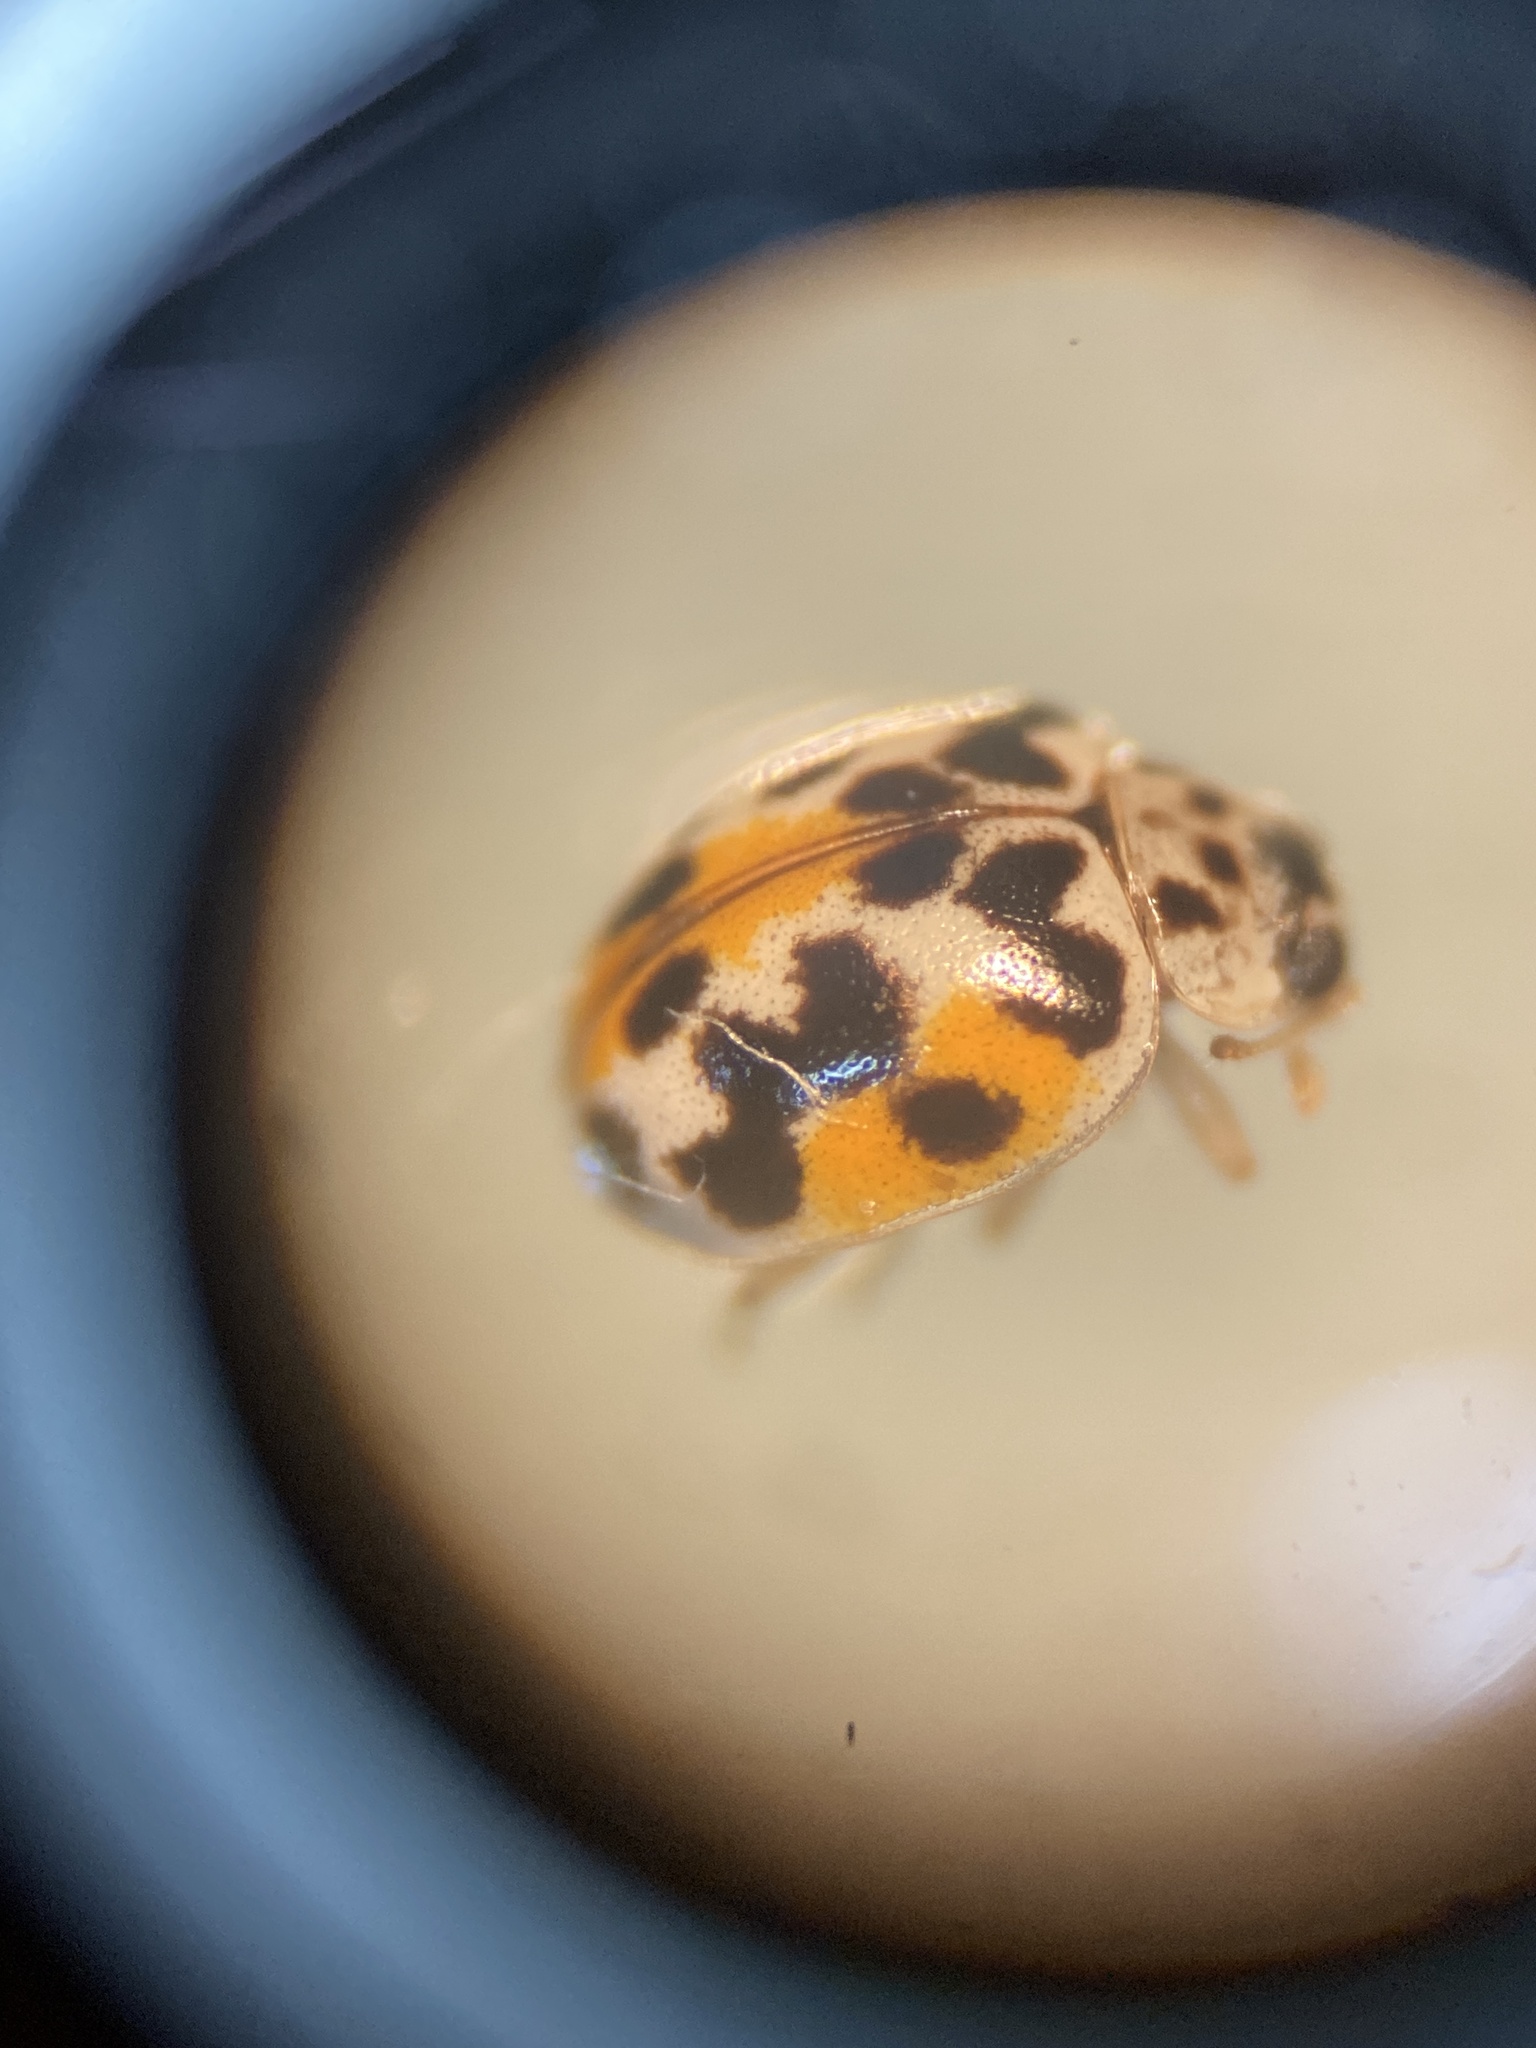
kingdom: Animalia
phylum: Arthropoda
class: Insecta
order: Coleoptera
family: Coccinellidae
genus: Psyllobora
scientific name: Psyllobora vigintimaculata
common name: Ladybird beetle
